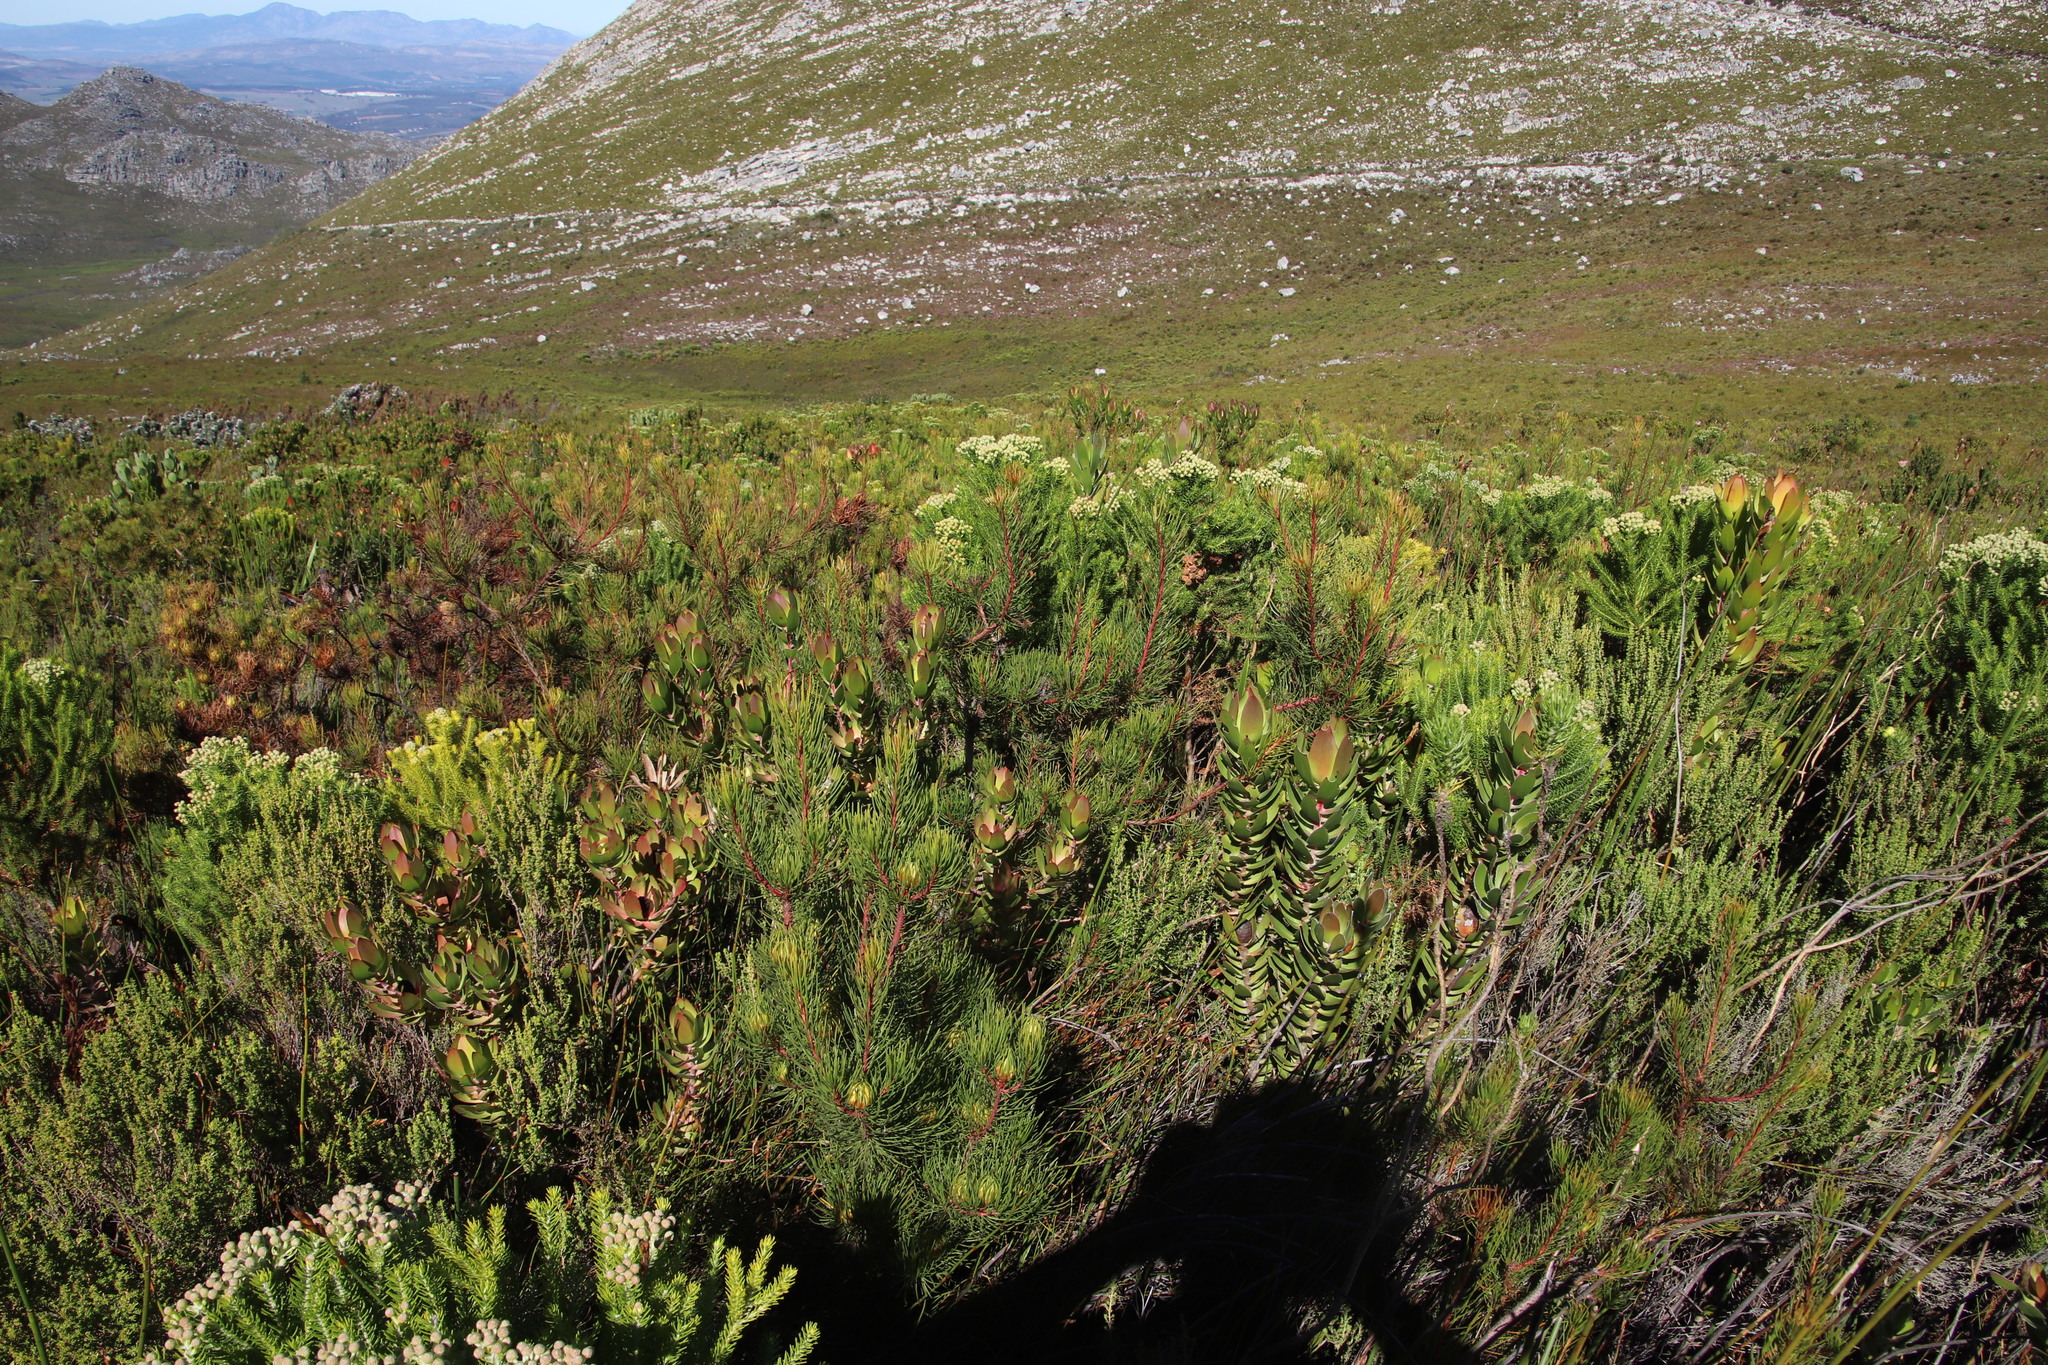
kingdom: Plantae
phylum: Tracheophyta
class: Magnoliopsida
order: Proteales
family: Proteaceae
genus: Aulax
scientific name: Aulax cancellata
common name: Channel-leaf featherbush
